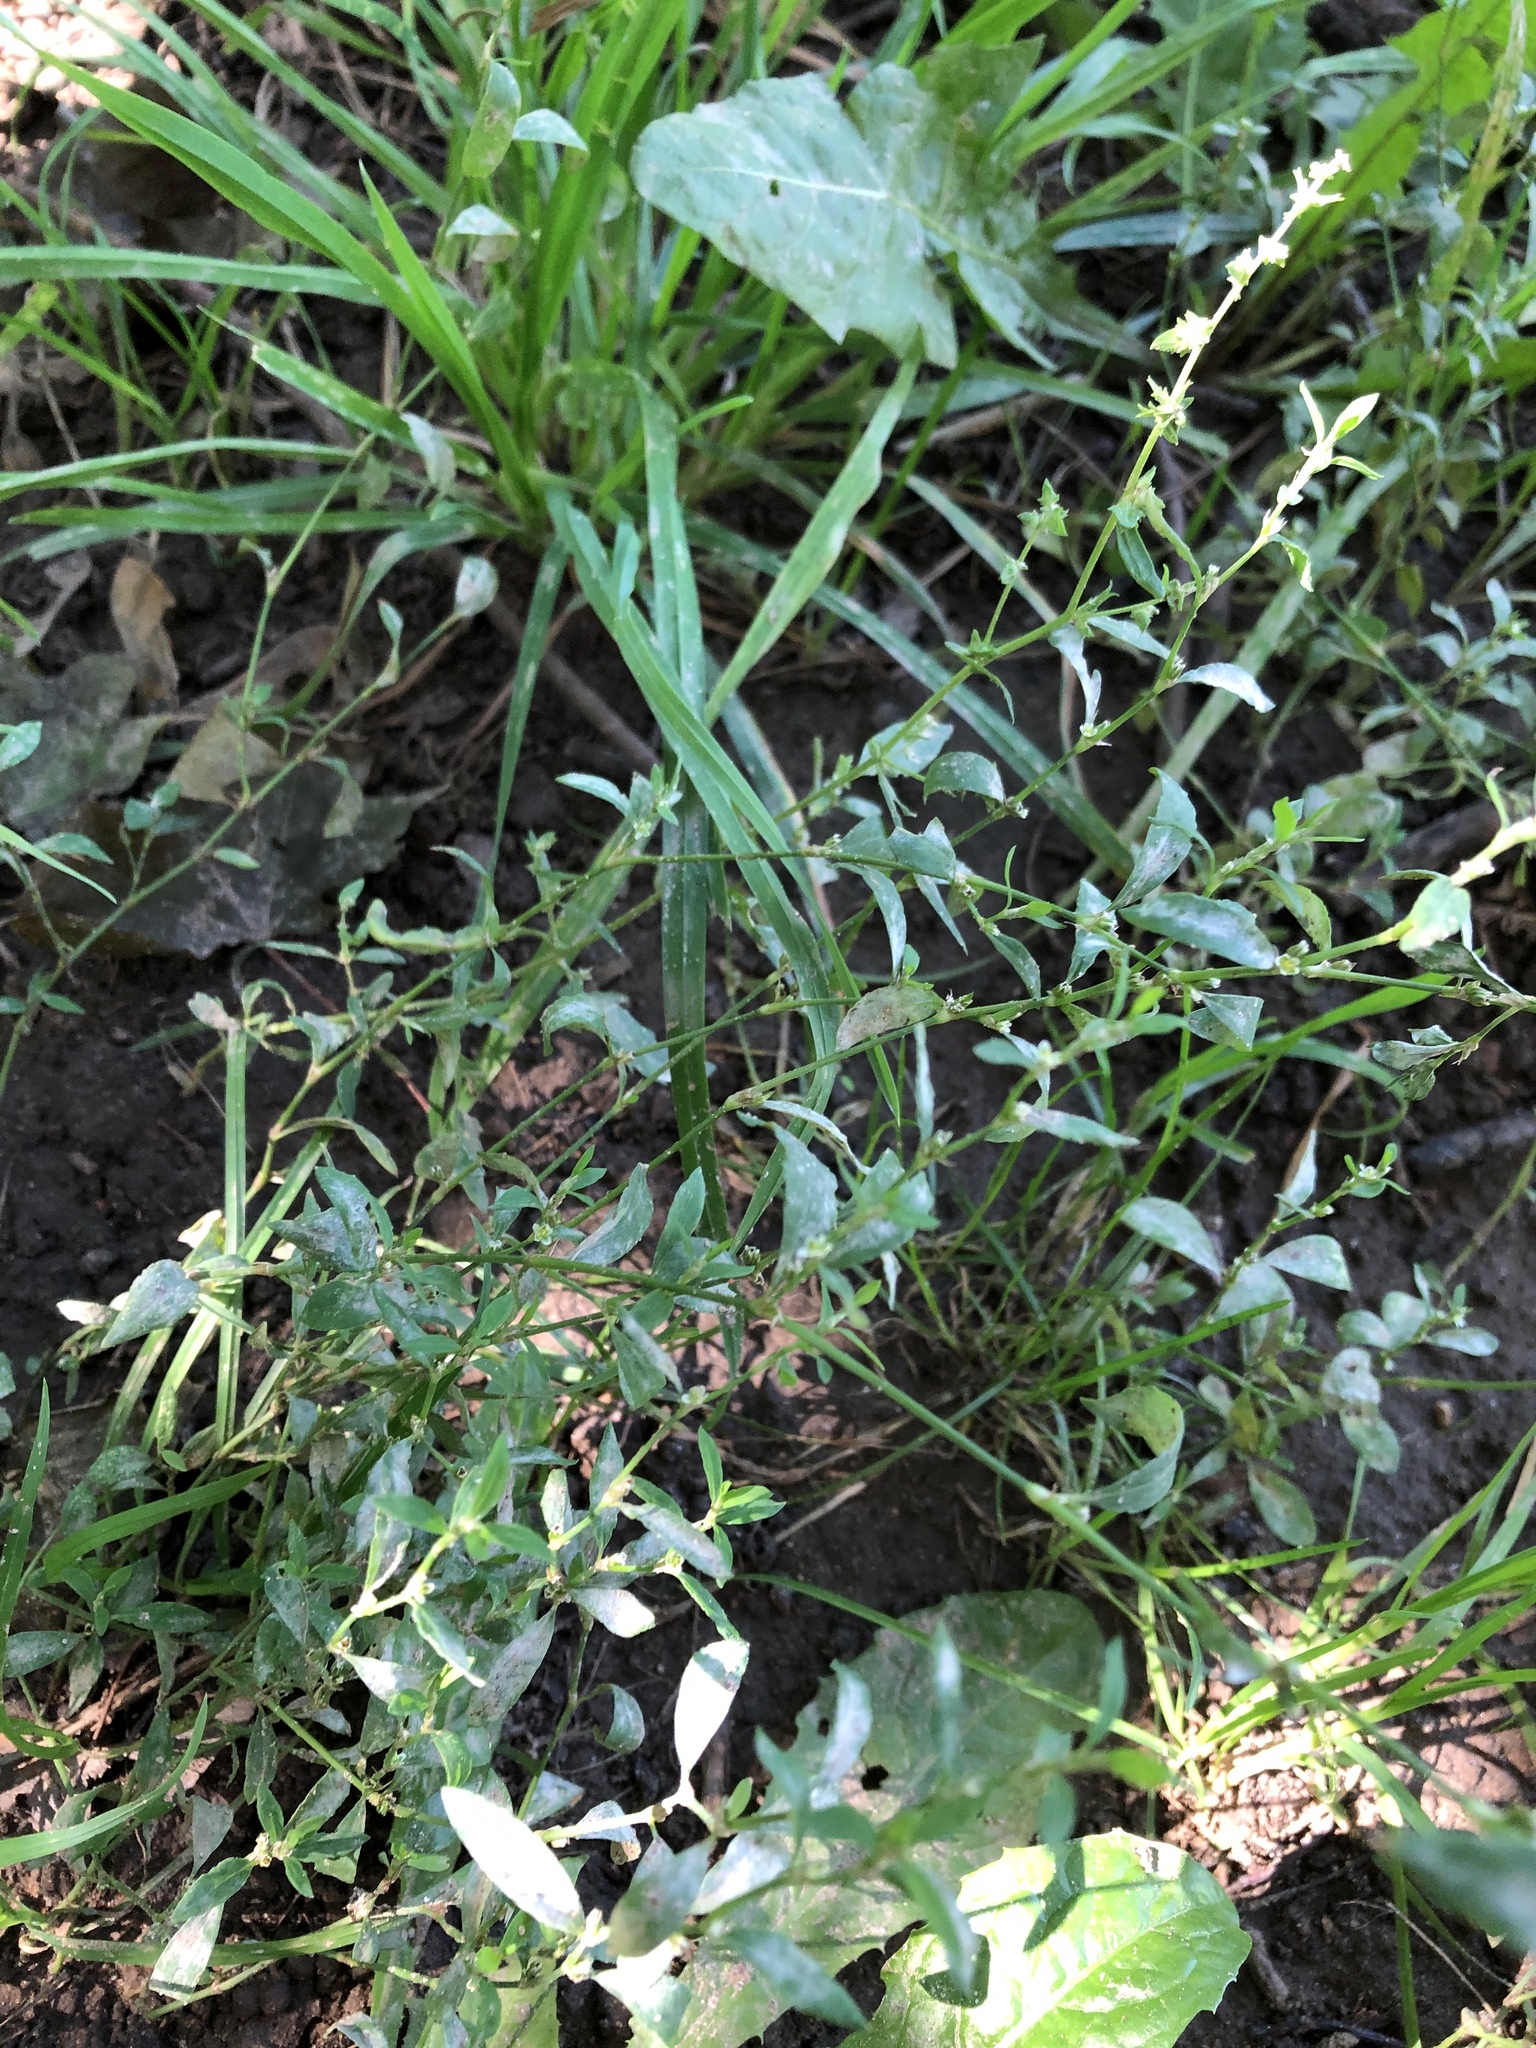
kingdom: Plantae
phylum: Tracheophyta
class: Magnoliopsida
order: Caryophyllales
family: Polygonaceae
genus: Polygonum
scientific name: Polygonum
